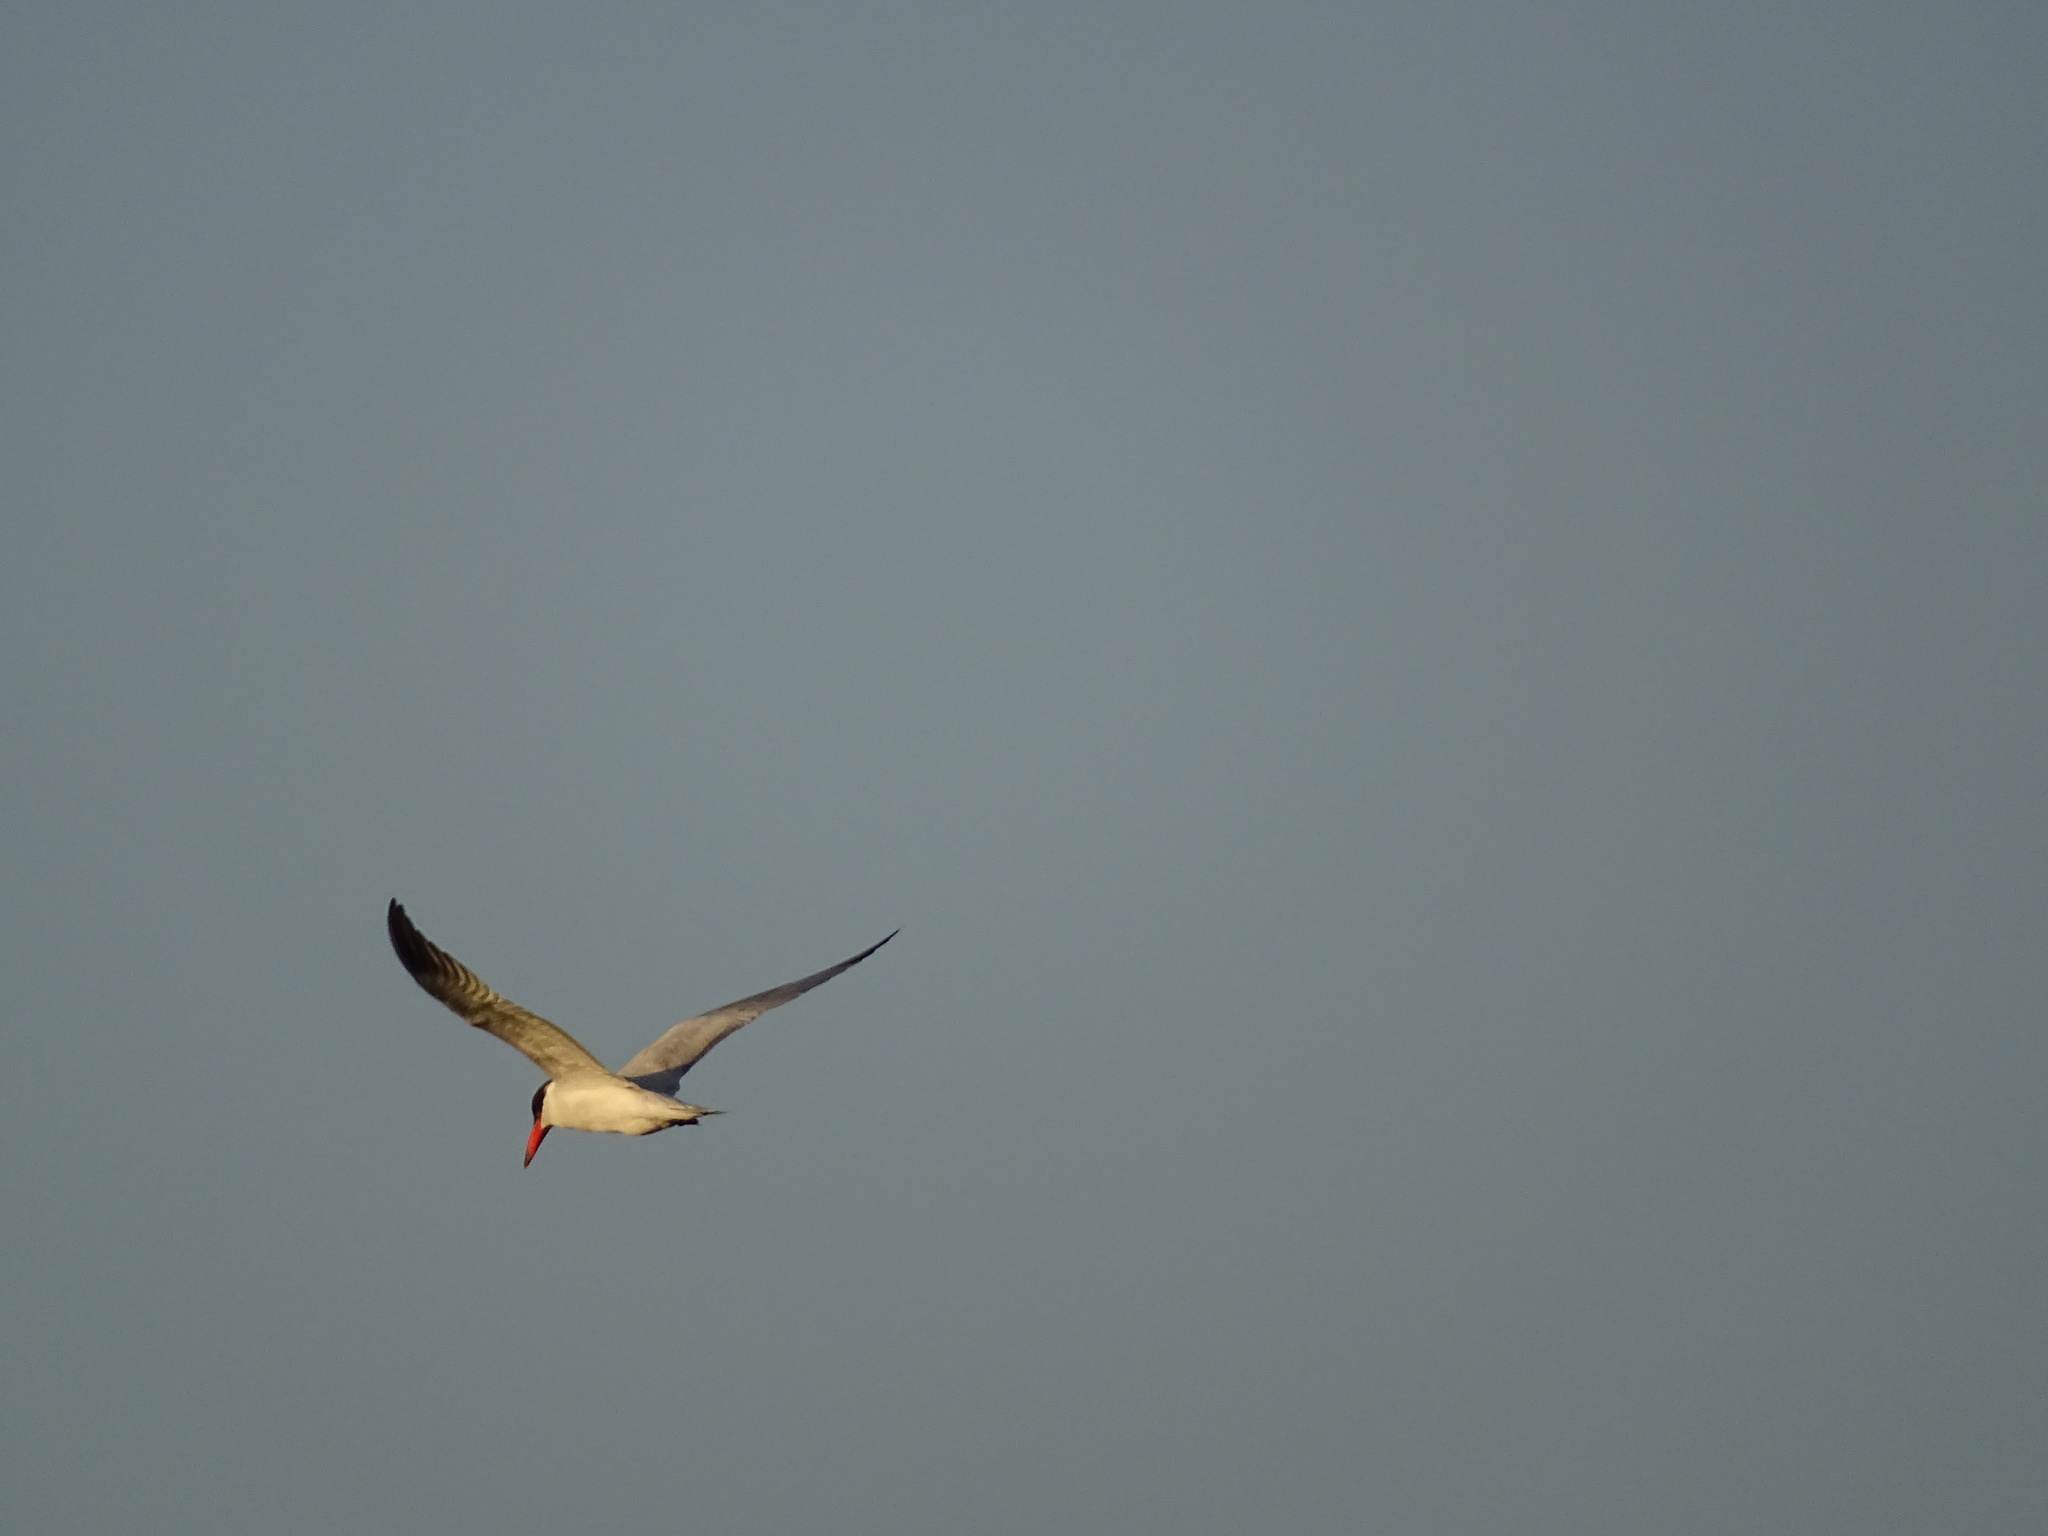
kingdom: Animalia
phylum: Chordata
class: Aves
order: Charadriiformes
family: Laridae
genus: Hydroprogne
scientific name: Hydroprogne caspia
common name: Caspian tern
